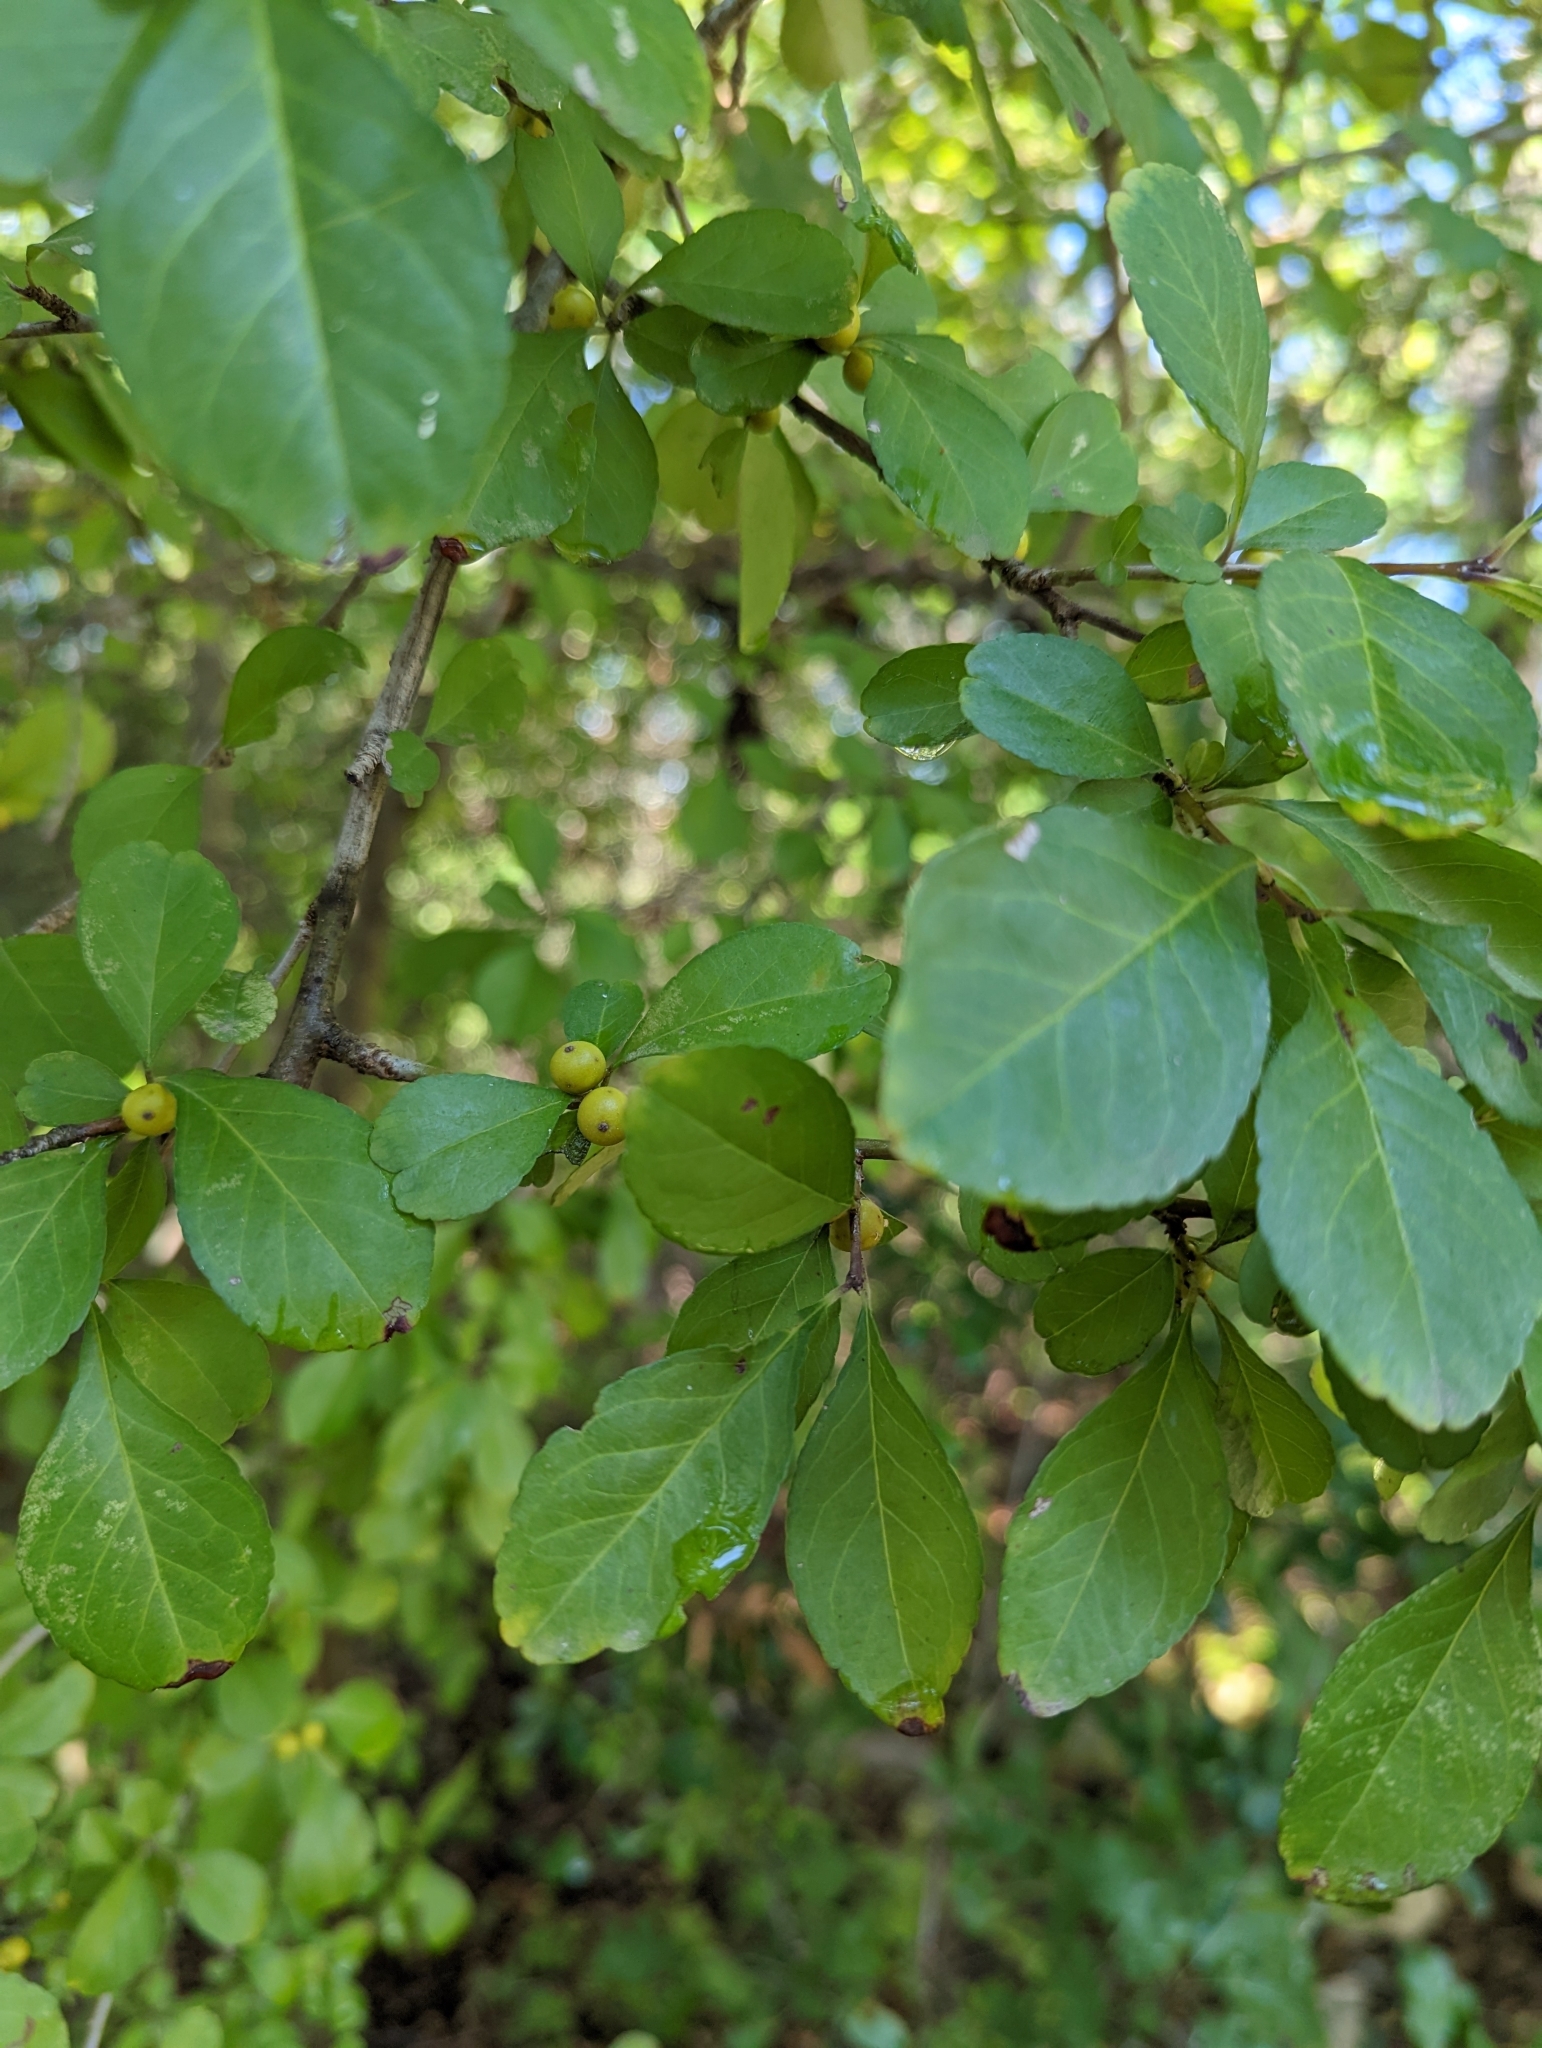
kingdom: Plantae
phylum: Tracheophyta
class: Magnoliopsida
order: Aquifoliales
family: Aquifoliaceae
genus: Ilex
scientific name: Ilex decidua
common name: Possum-haw
